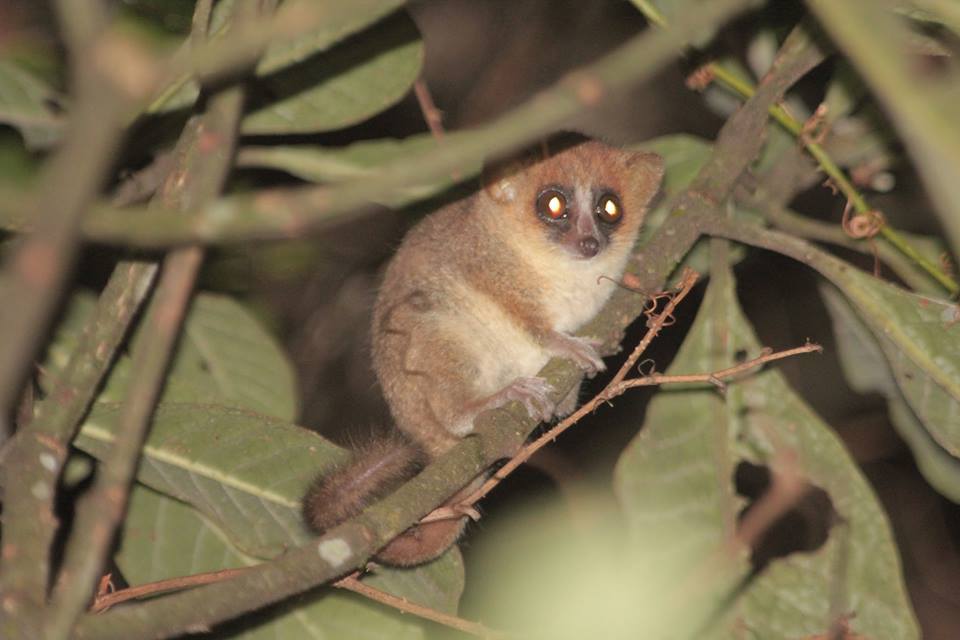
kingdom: Animalia
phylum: Chordata
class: Mammalia
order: Primates
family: Cheirogaleidae
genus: Microcebus
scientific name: Microcebus lehilahytsara
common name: Goodman's mouse lemur
